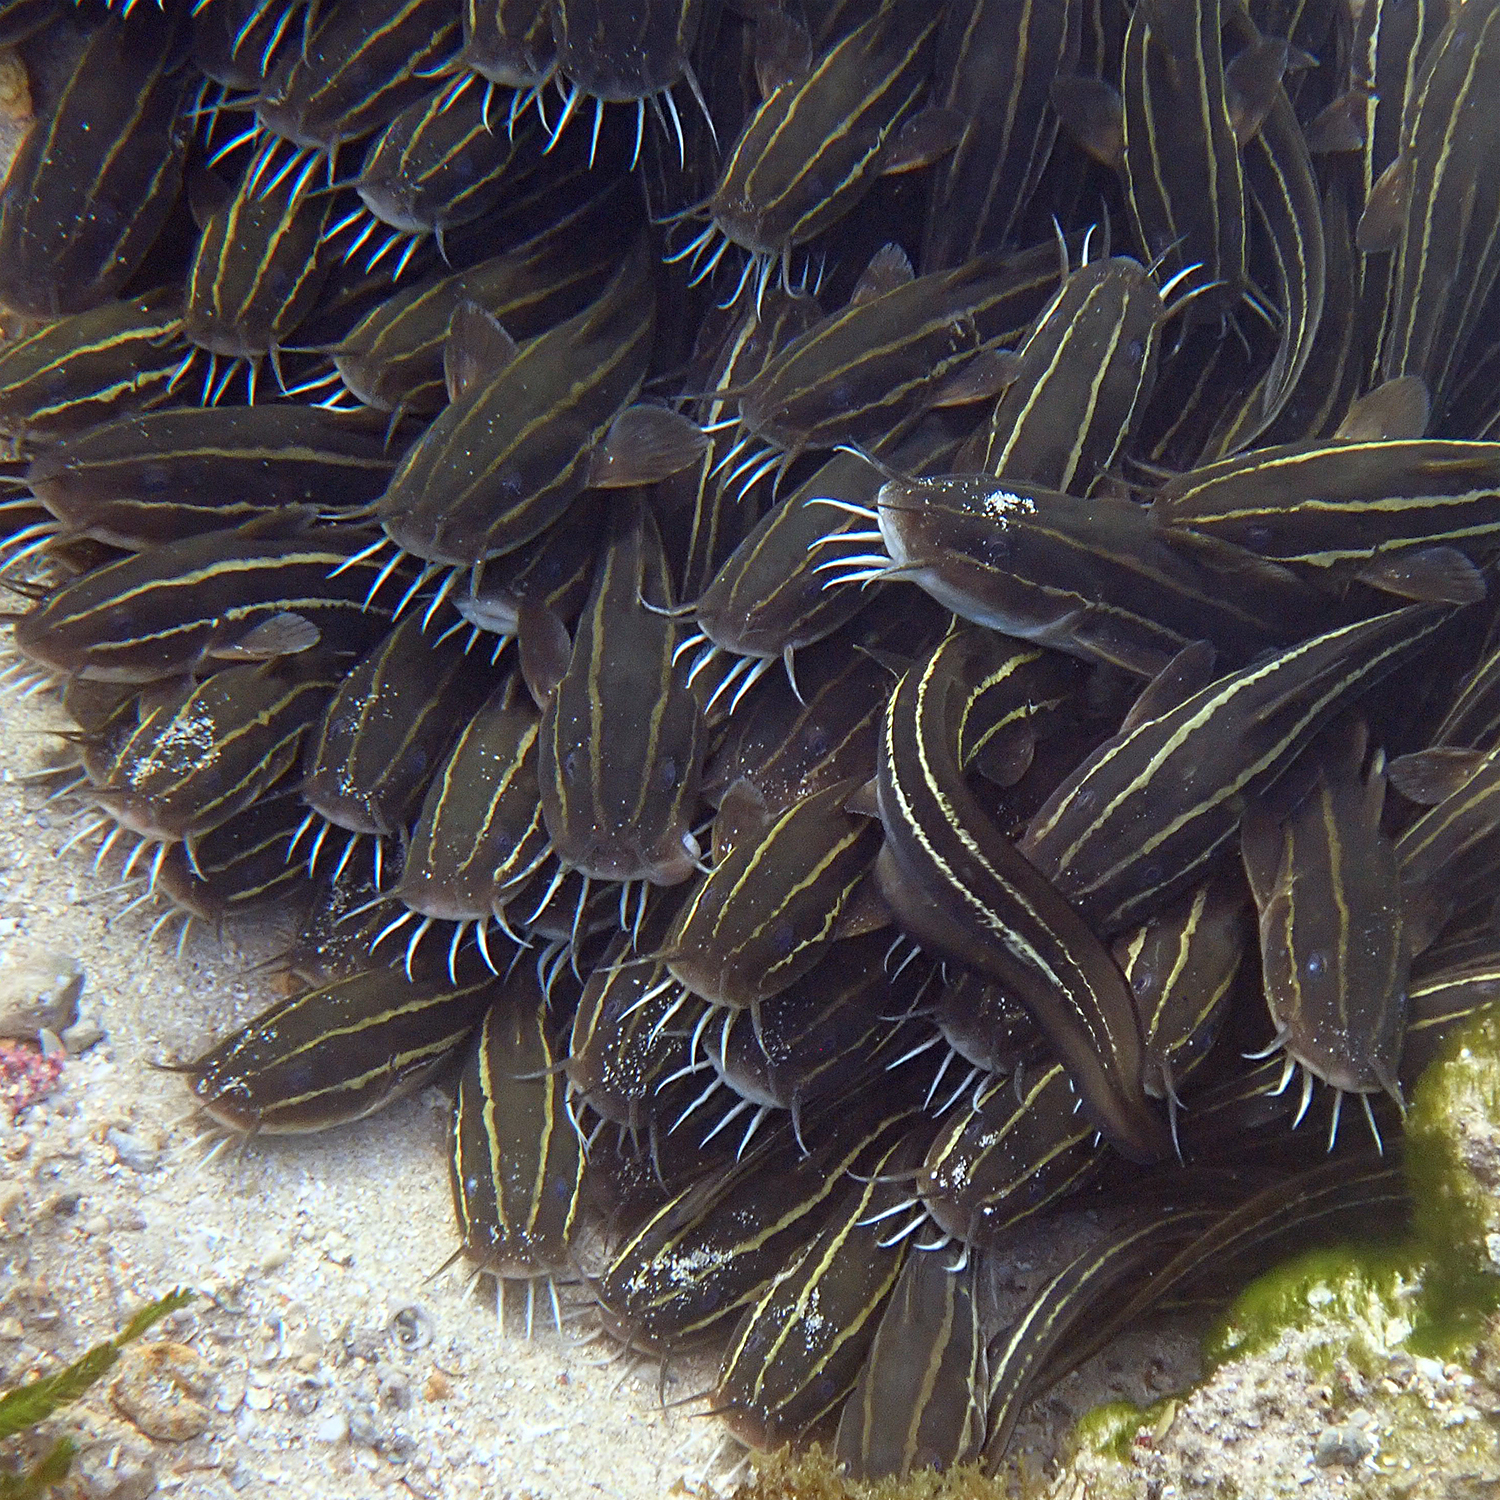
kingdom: Animalia
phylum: Chordata
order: Siluriformes
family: Plotosidae
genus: Plotosus
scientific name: Plotosus lineatus
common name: Striped eel catfish
